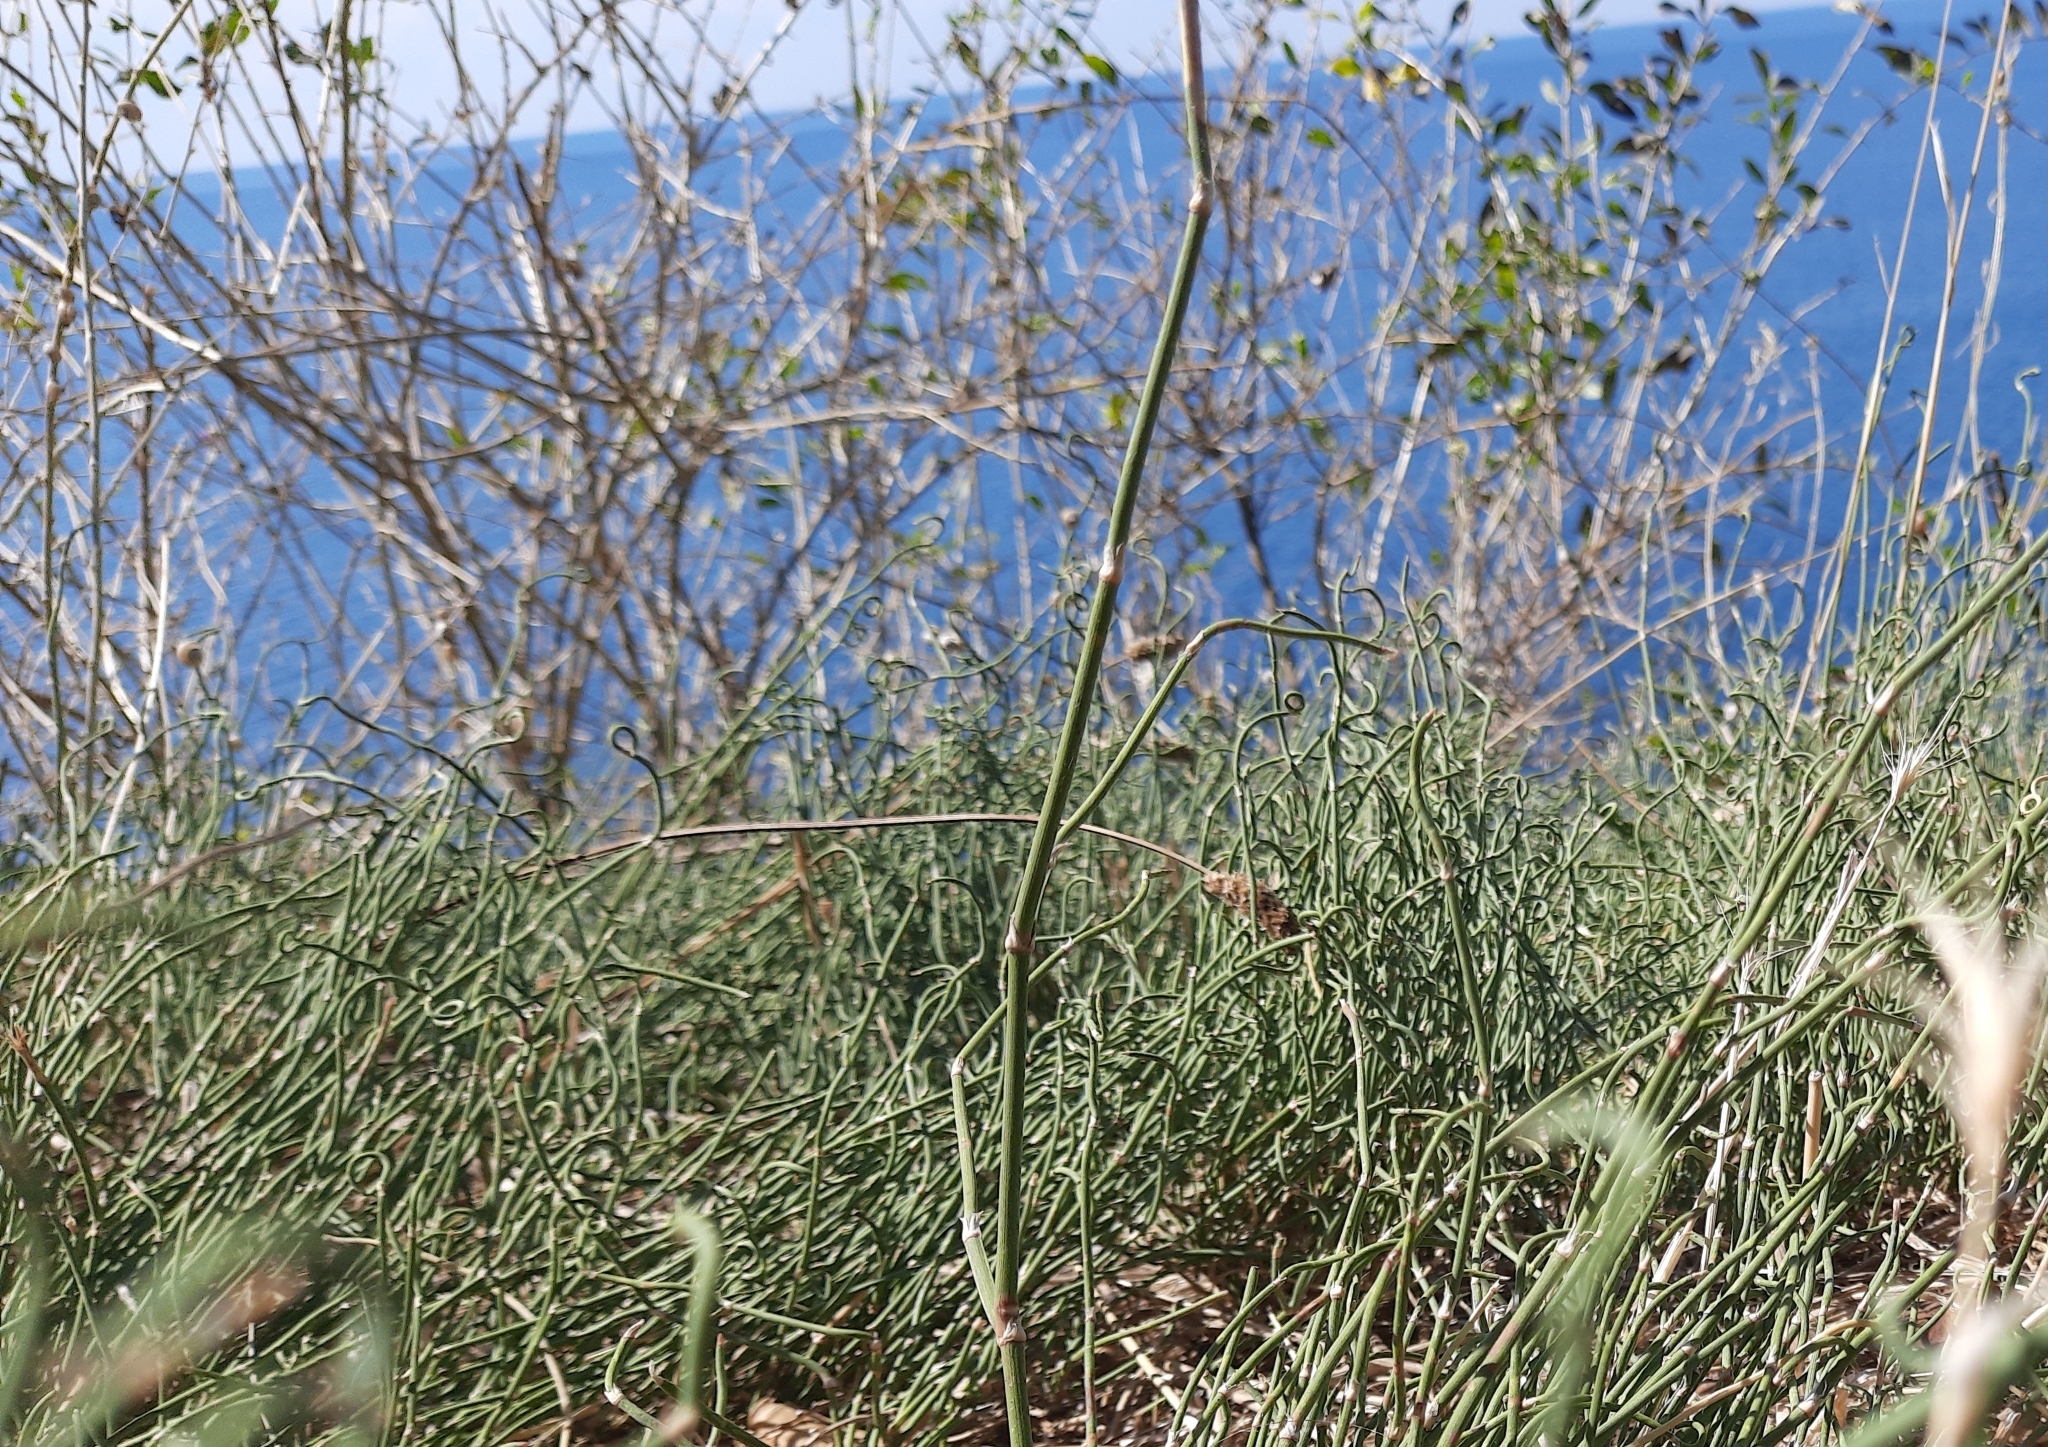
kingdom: Plantae
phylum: Tracheophyta
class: Gnetopsida
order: Ephedrales
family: Ephedraceae
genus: Ephedra
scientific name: Ephedra distachya
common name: Sea grape
